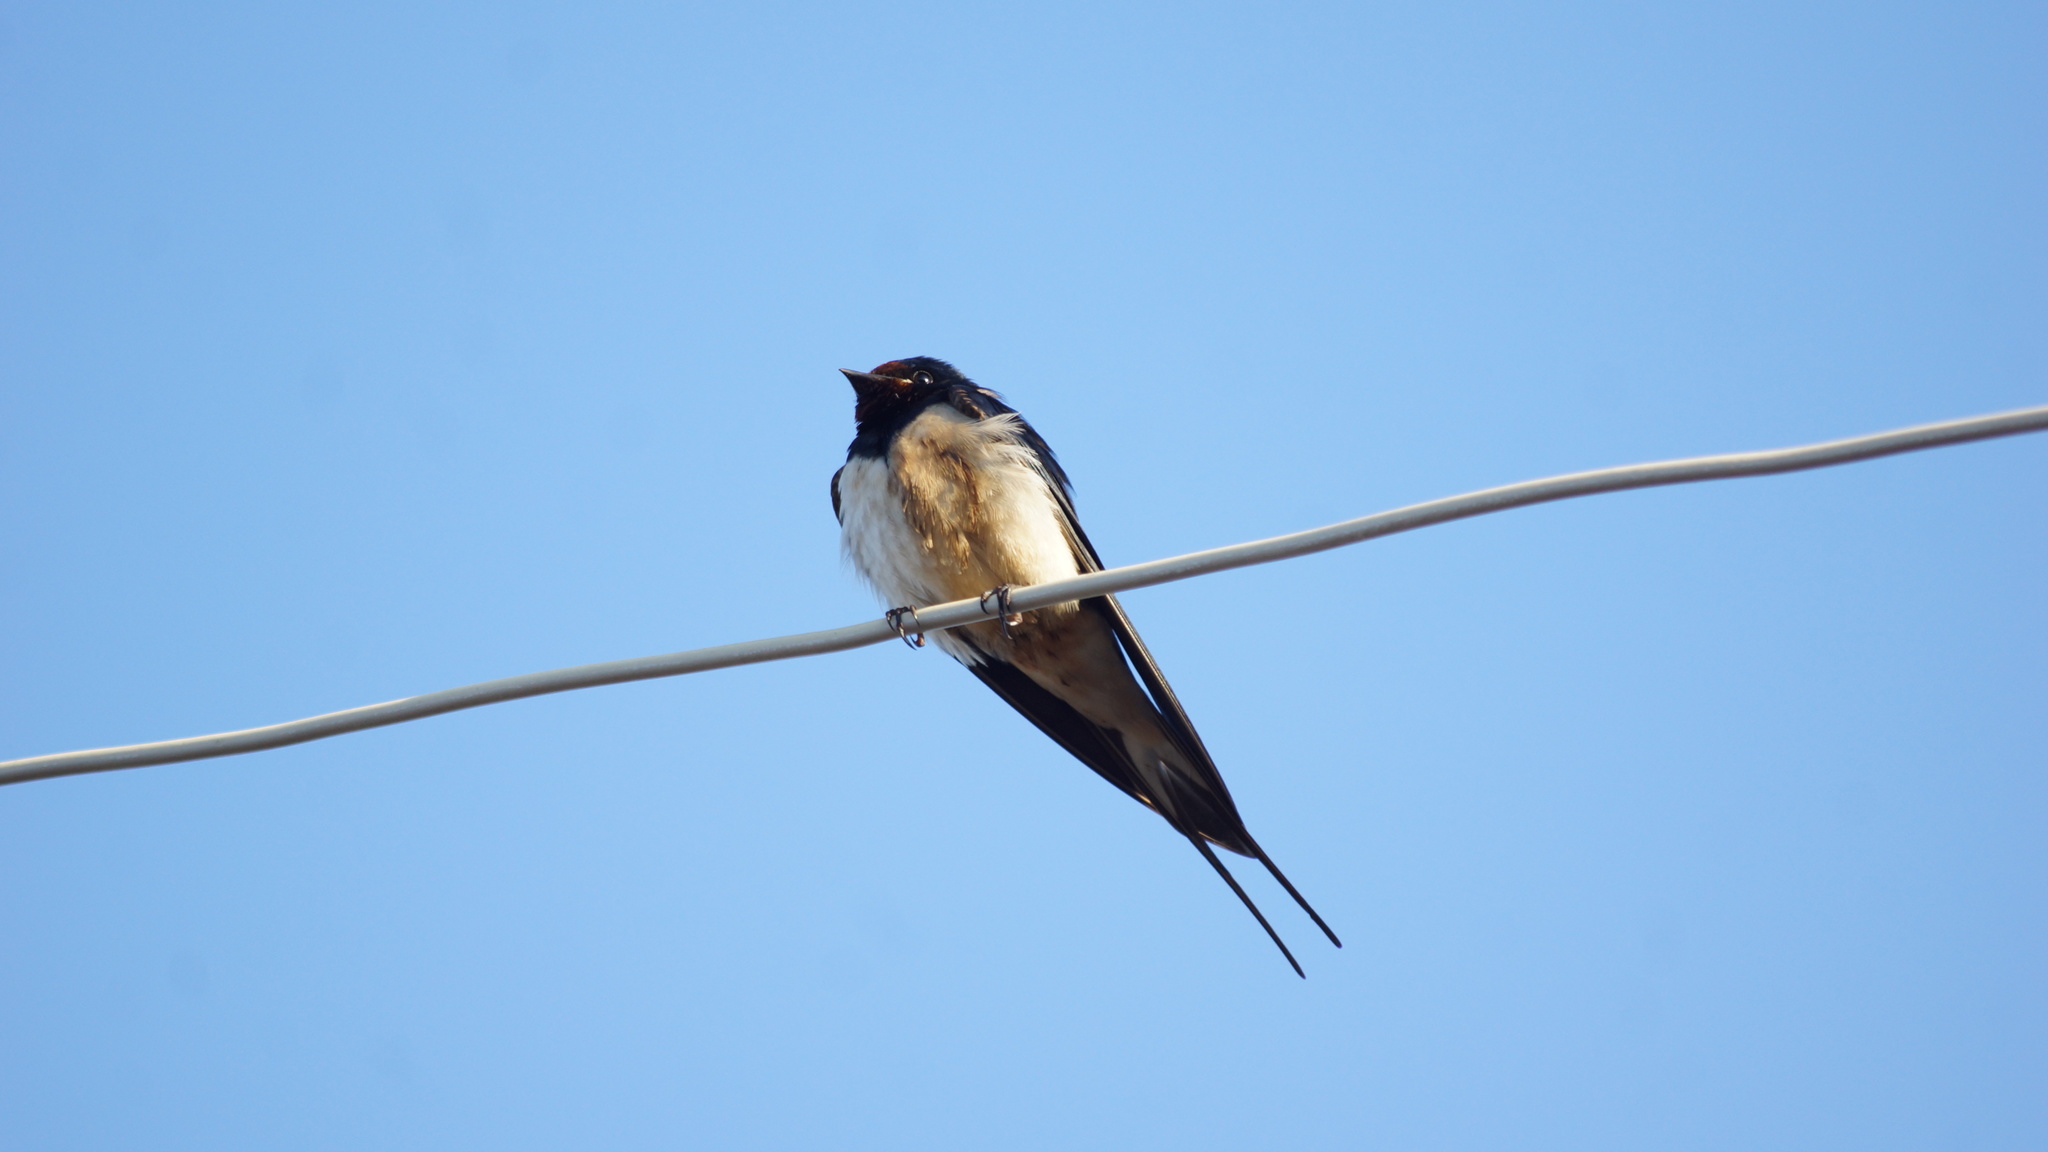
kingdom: Animalia
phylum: Chordata
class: Aves
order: Passeriformes
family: Hirundinidae
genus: Hirundo
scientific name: Hirundo rustica
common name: Barn swallow
